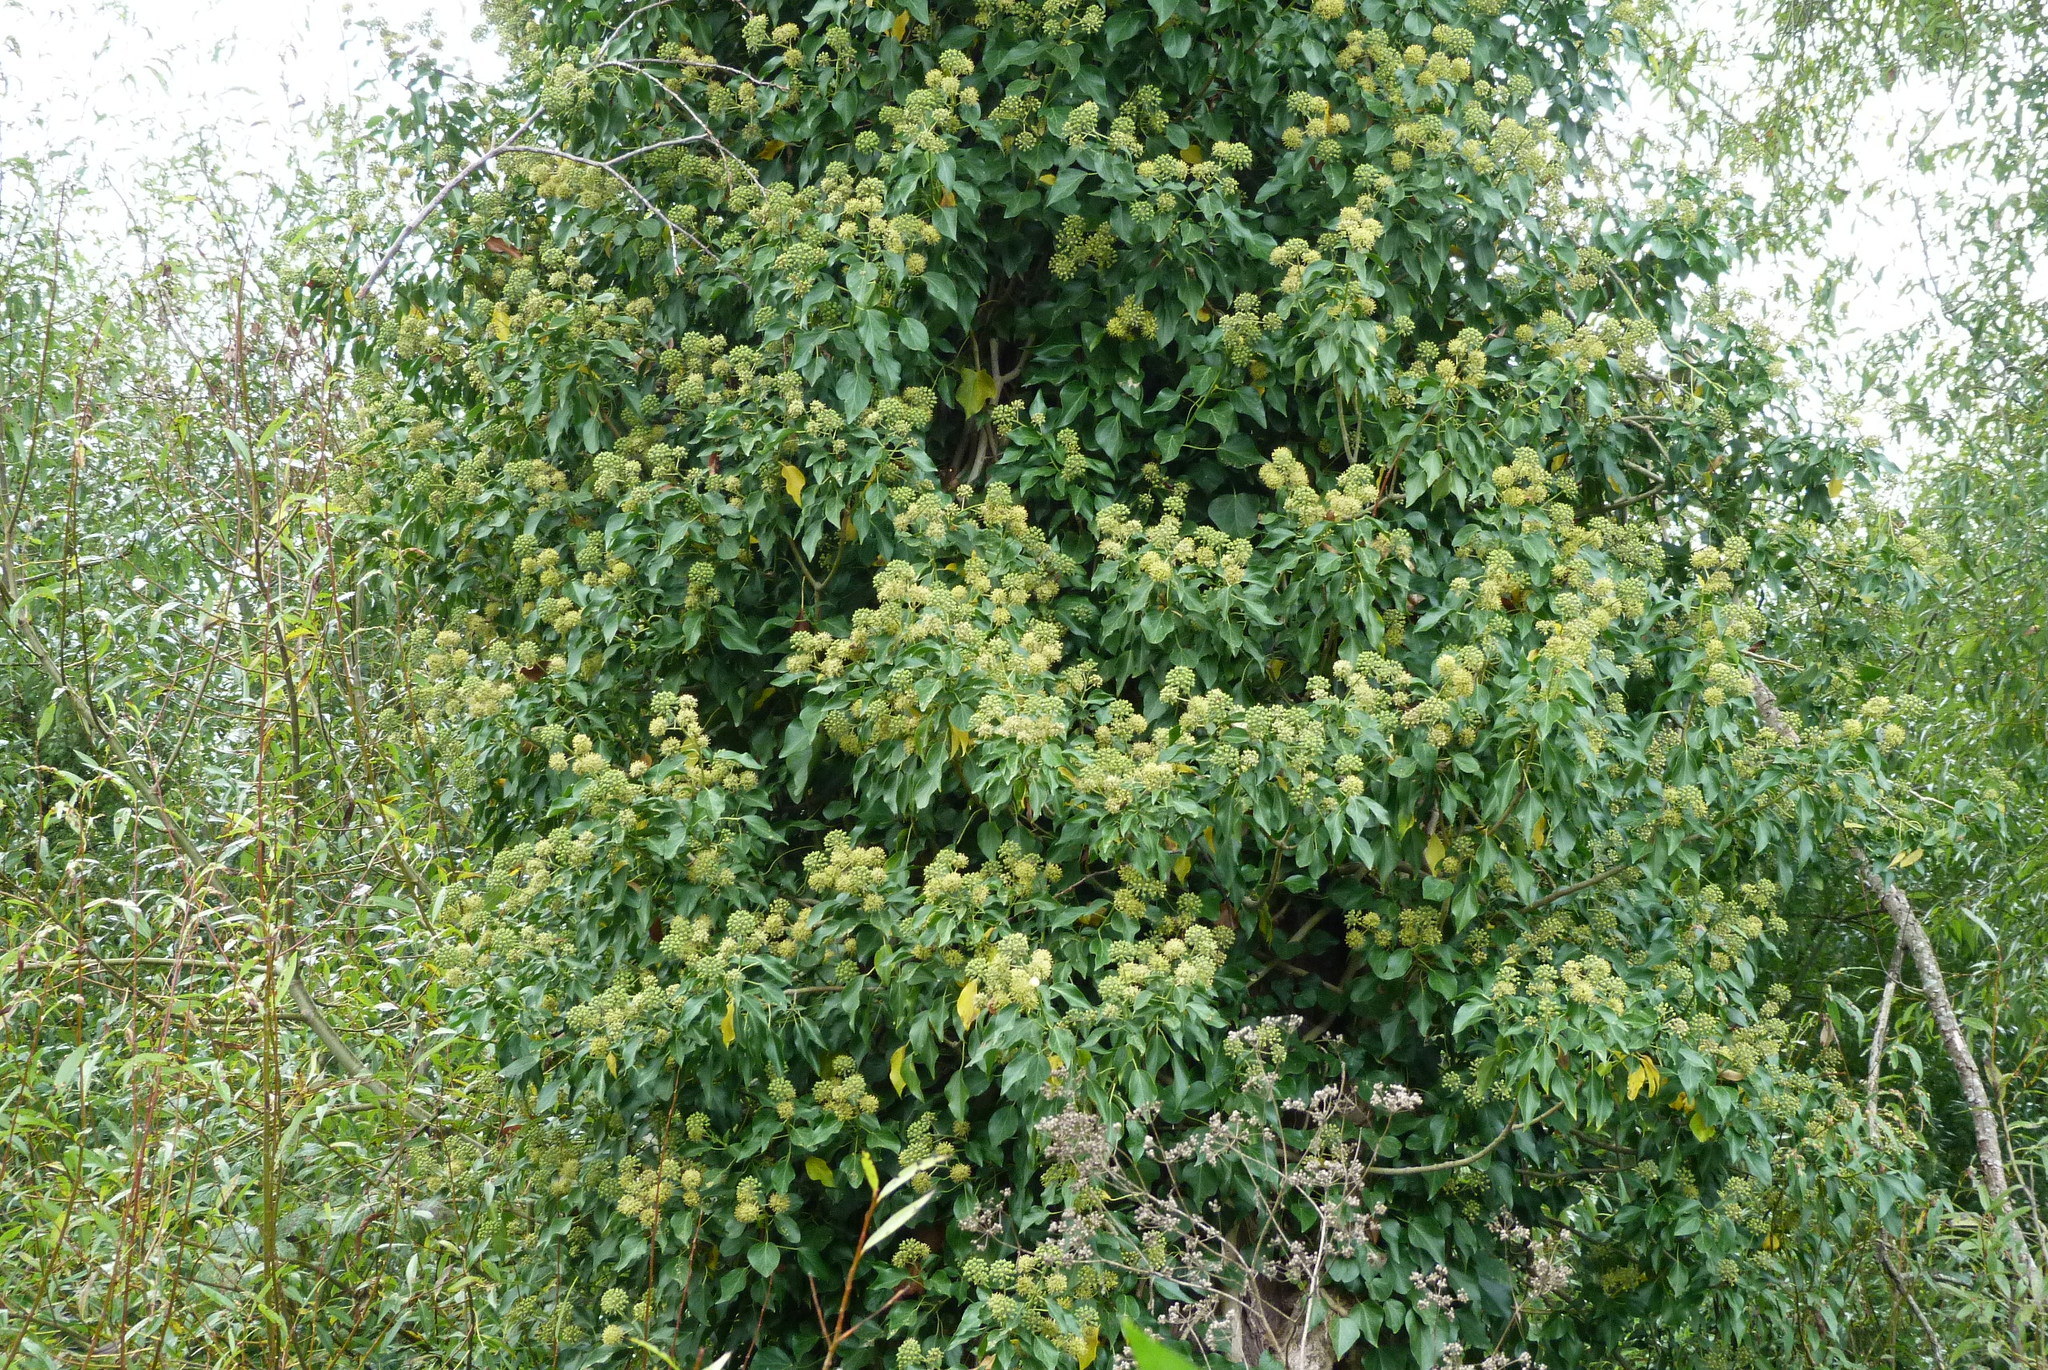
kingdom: Plantae
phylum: Tracheophyta
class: Magnoliopsida
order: Apiales
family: Araliaceae
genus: Hedera
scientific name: Hedera helix
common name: Ivy
